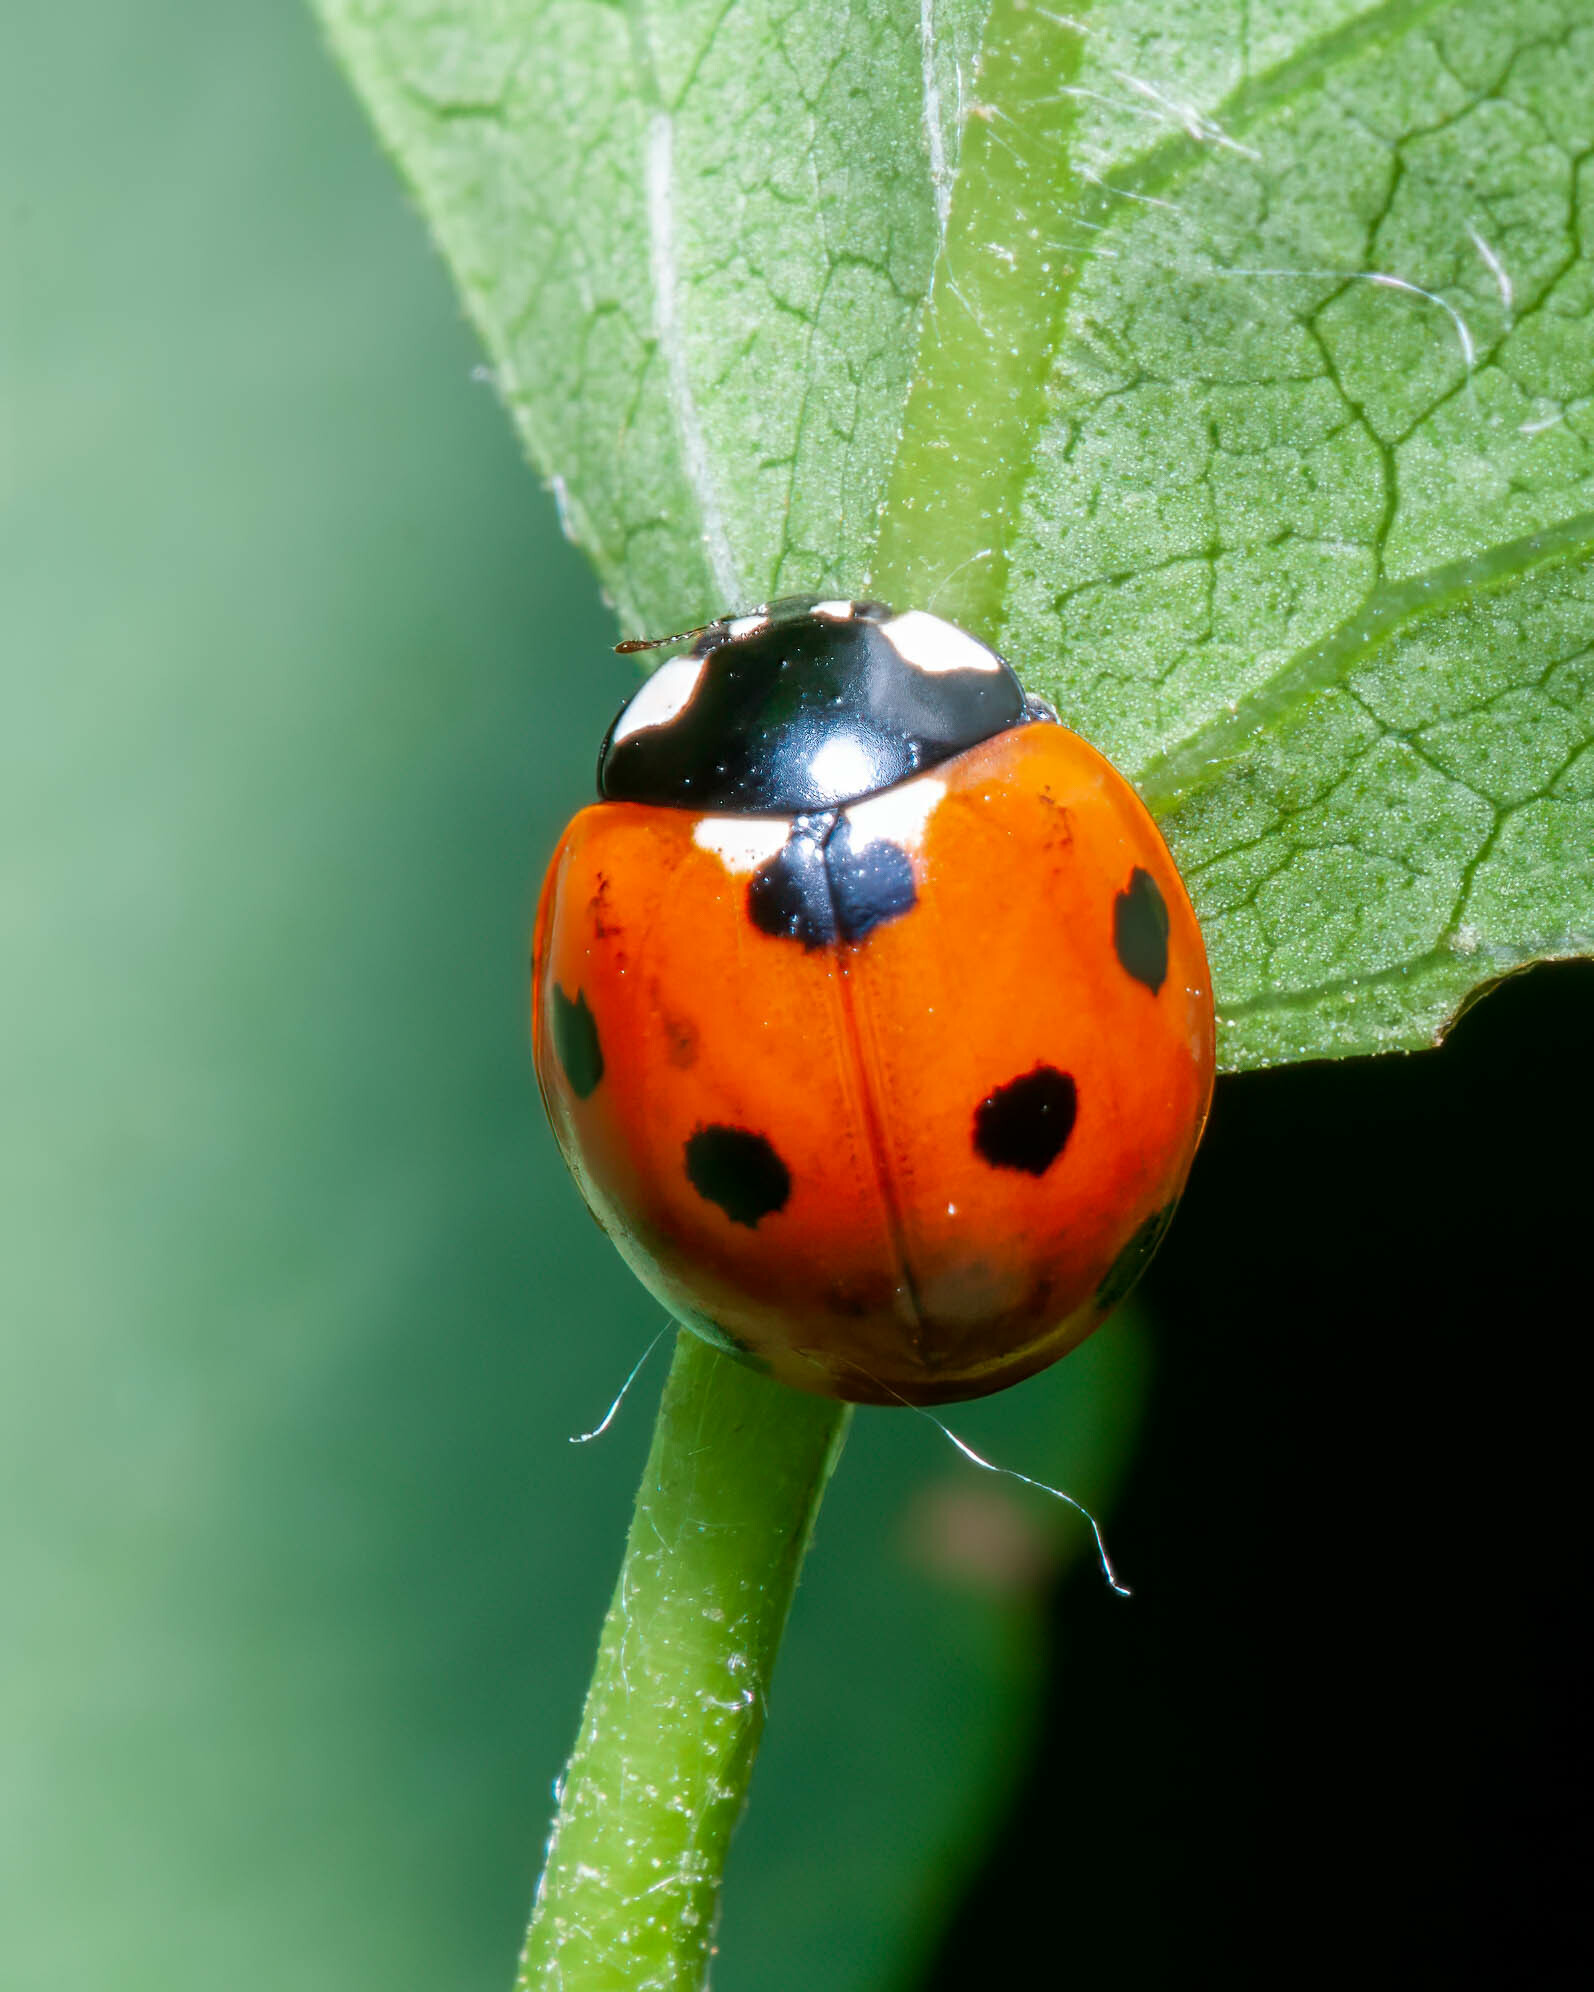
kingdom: Animalia
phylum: Arthropoda
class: Insecta
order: Coleoptera
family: Coccinellidae
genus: Coccinella
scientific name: Coccinella septempunctata
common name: Sevenspotted lady beetle
